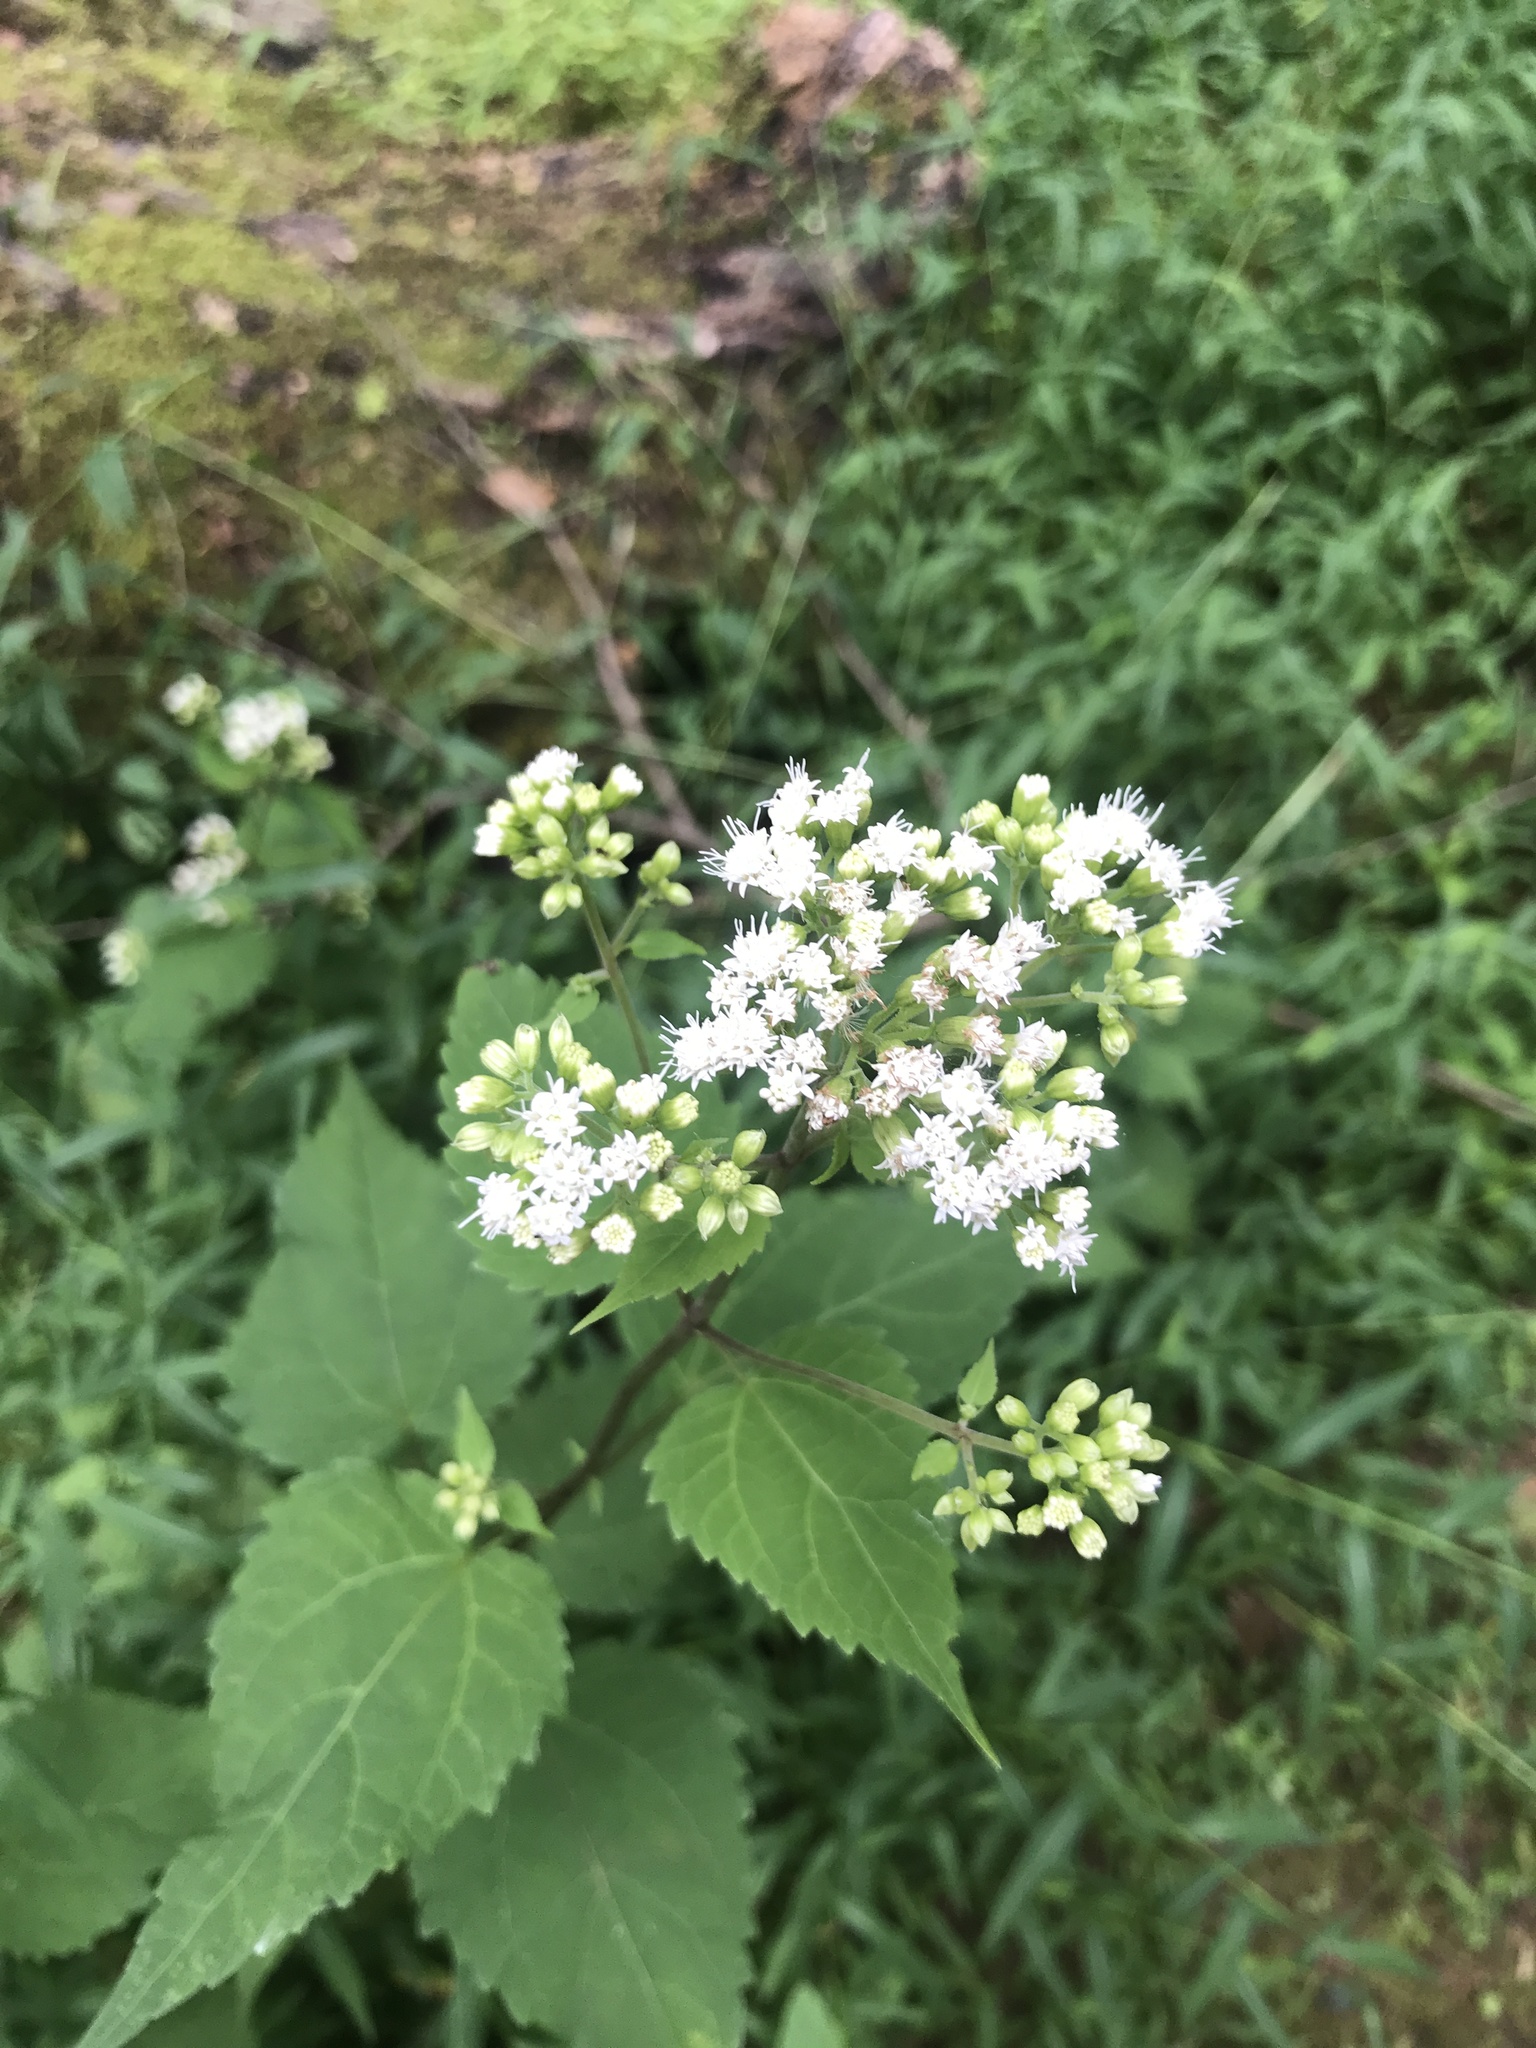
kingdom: Plantae
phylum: Tracheophyta
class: Magnoliopsida
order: Asterales
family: Asteraceae
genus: Ageratina
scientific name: Ageratina altissima
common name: White snakeroot
